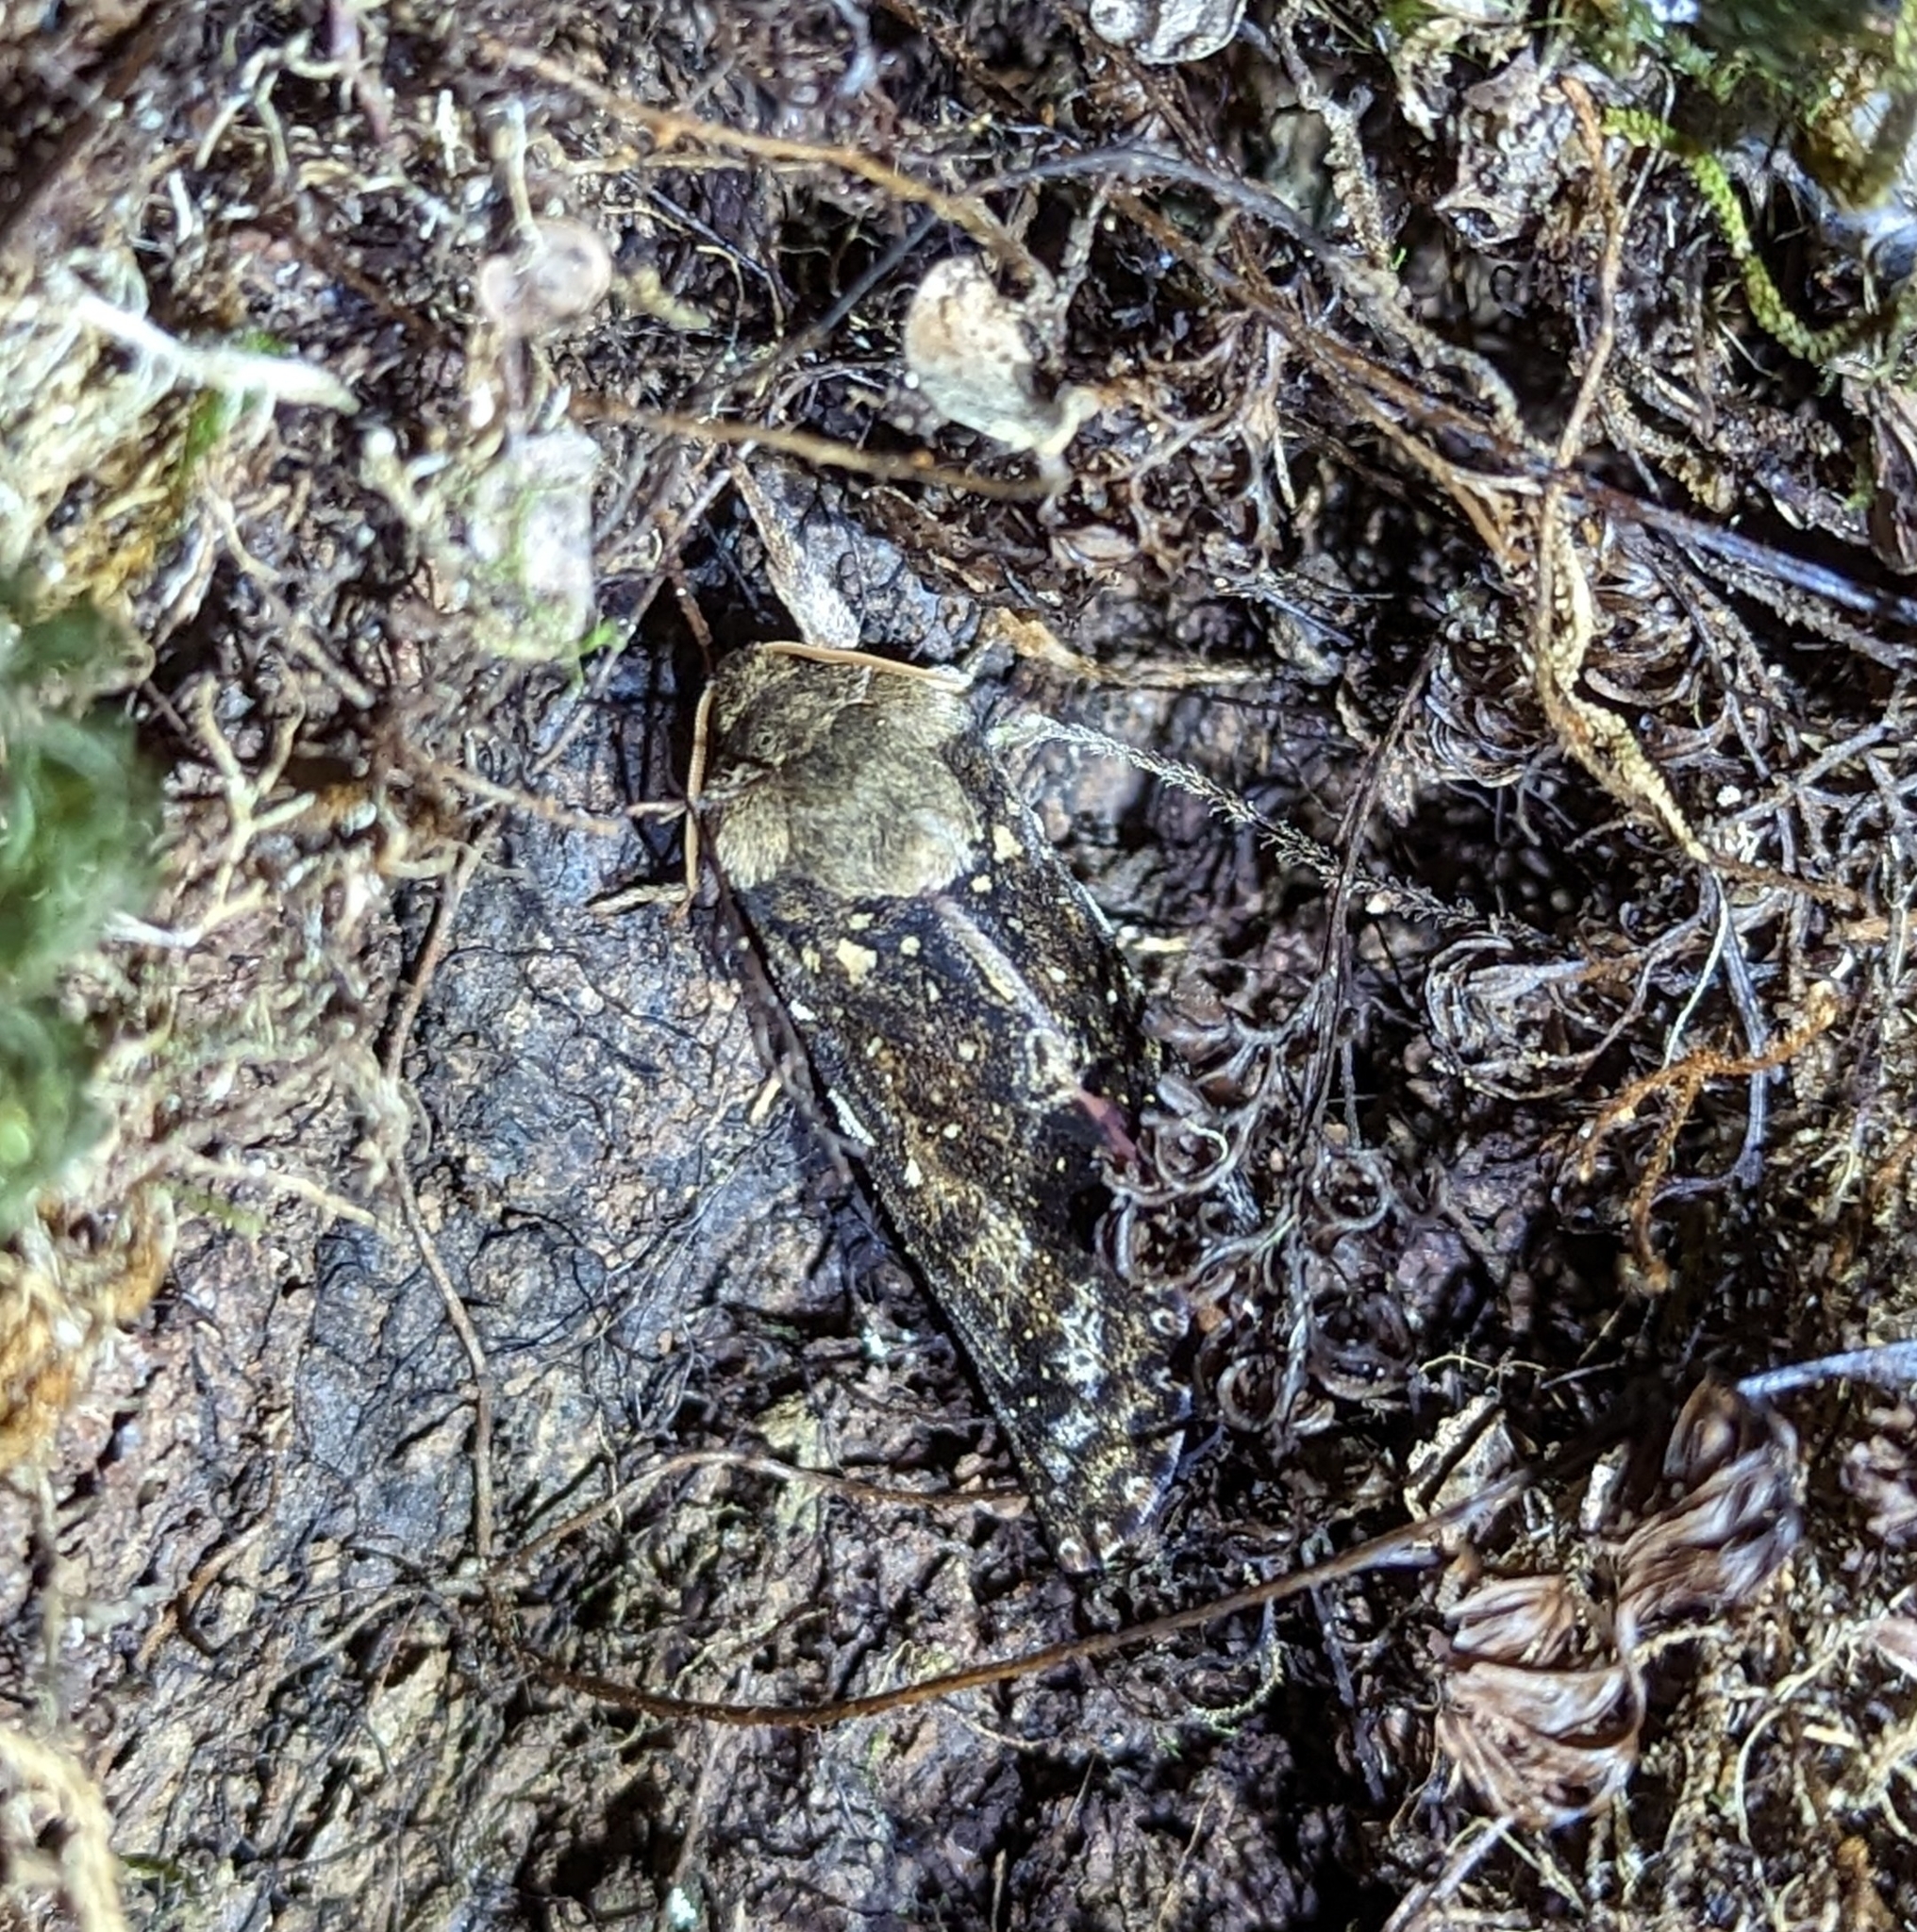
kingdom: Animalia
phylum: Arthropoda
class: Insecta
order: Lepidoptera
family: Hepialidae
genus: Dumbletonius
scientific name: Dumbletonius unimaculata
